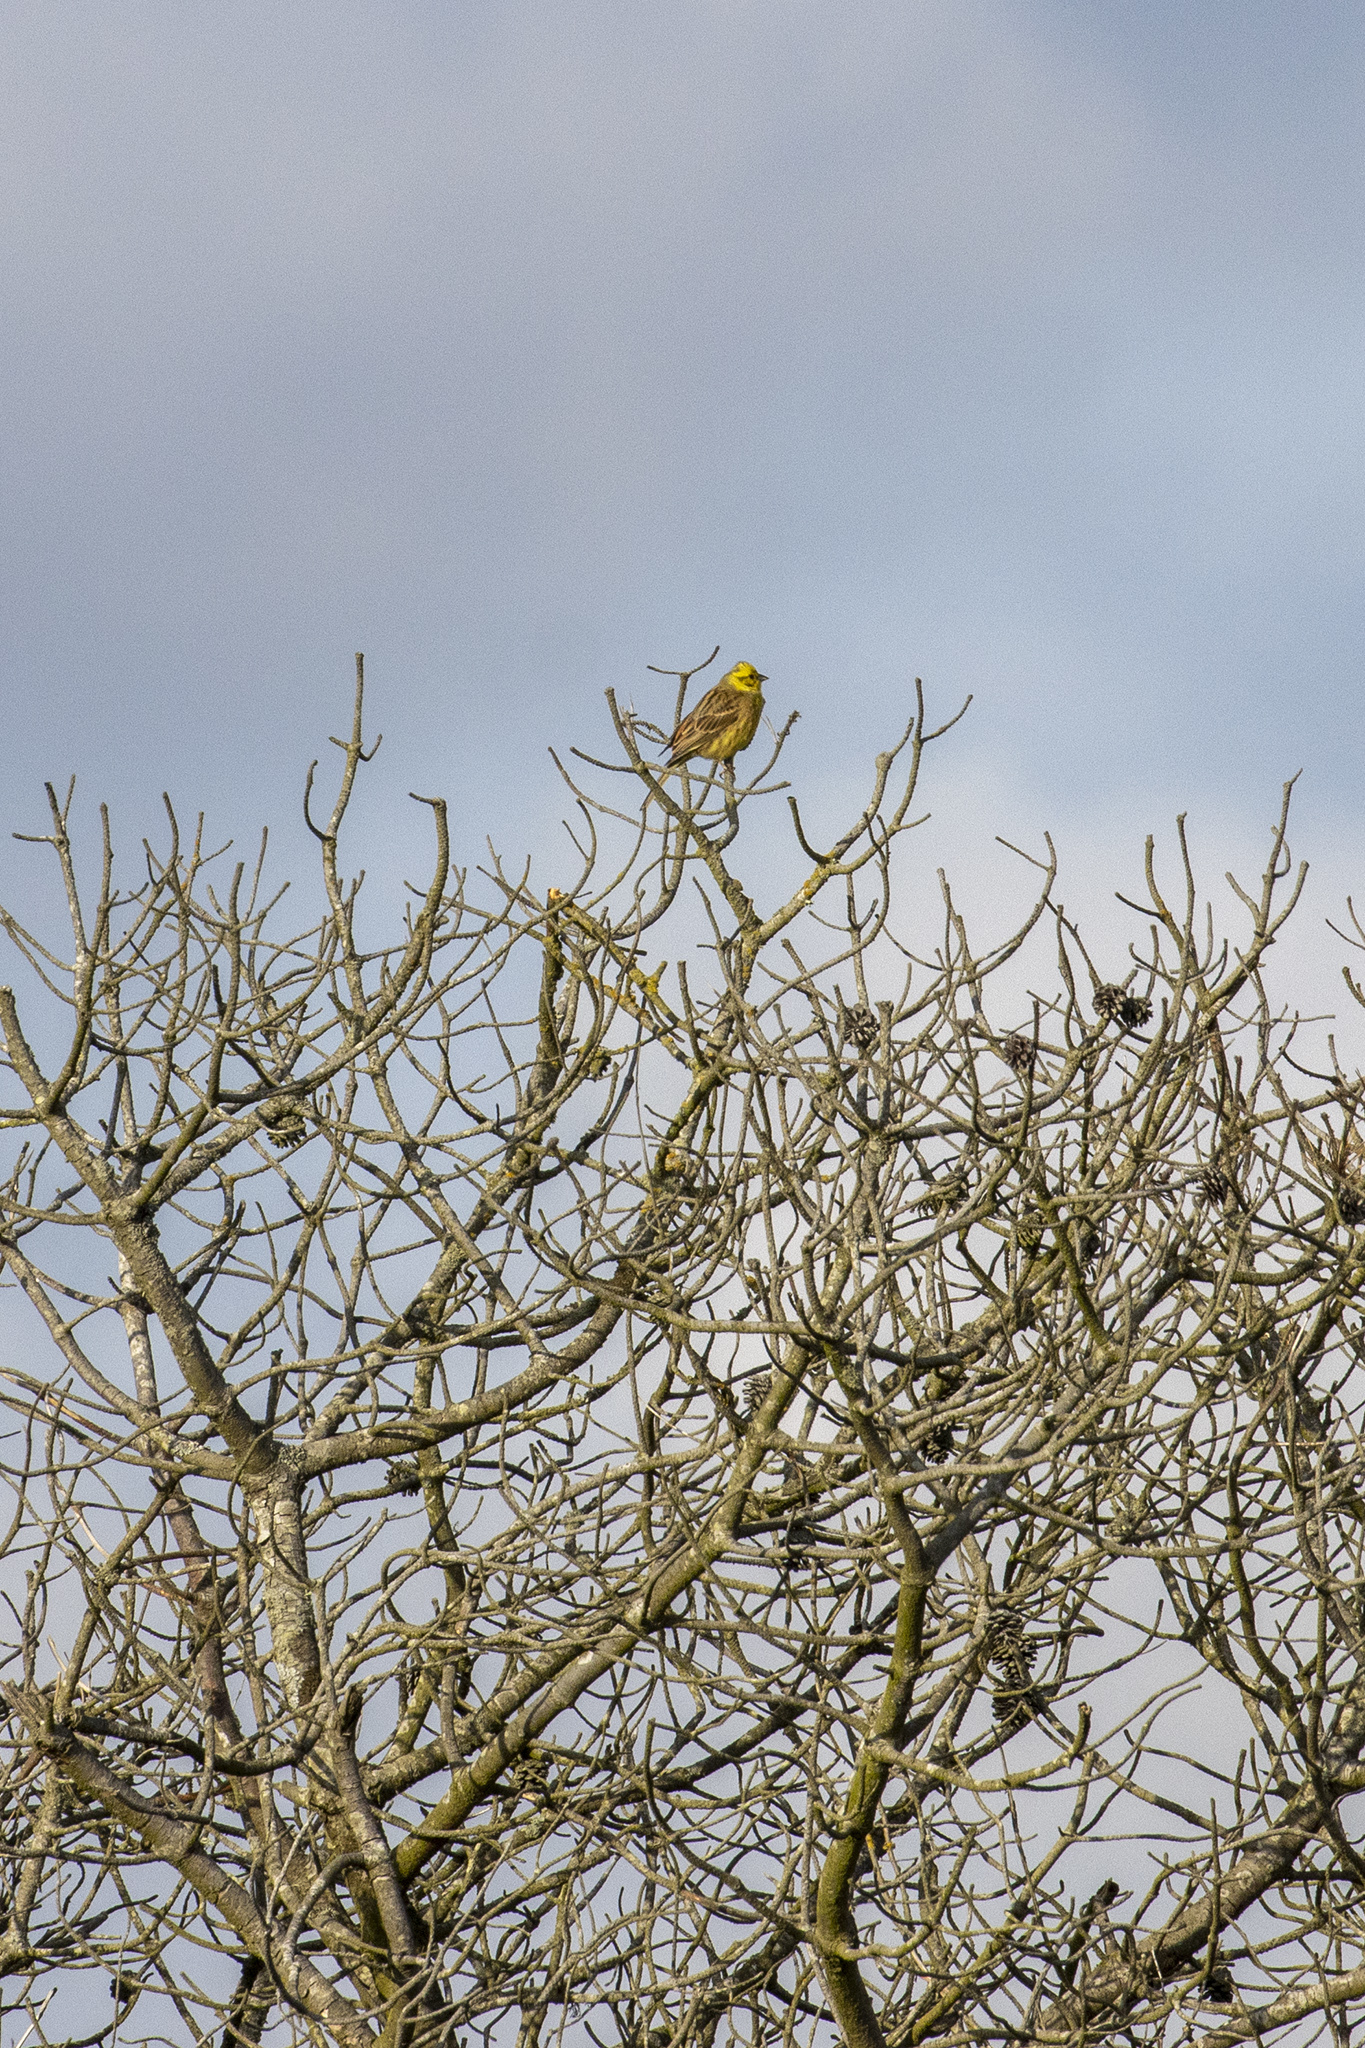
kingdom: Animalia
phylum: Chordata
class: Aves
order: Passeriformes
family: Emberizidae
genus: Emberiza
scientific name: Emberiza citrinella
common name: Yellowhammer
